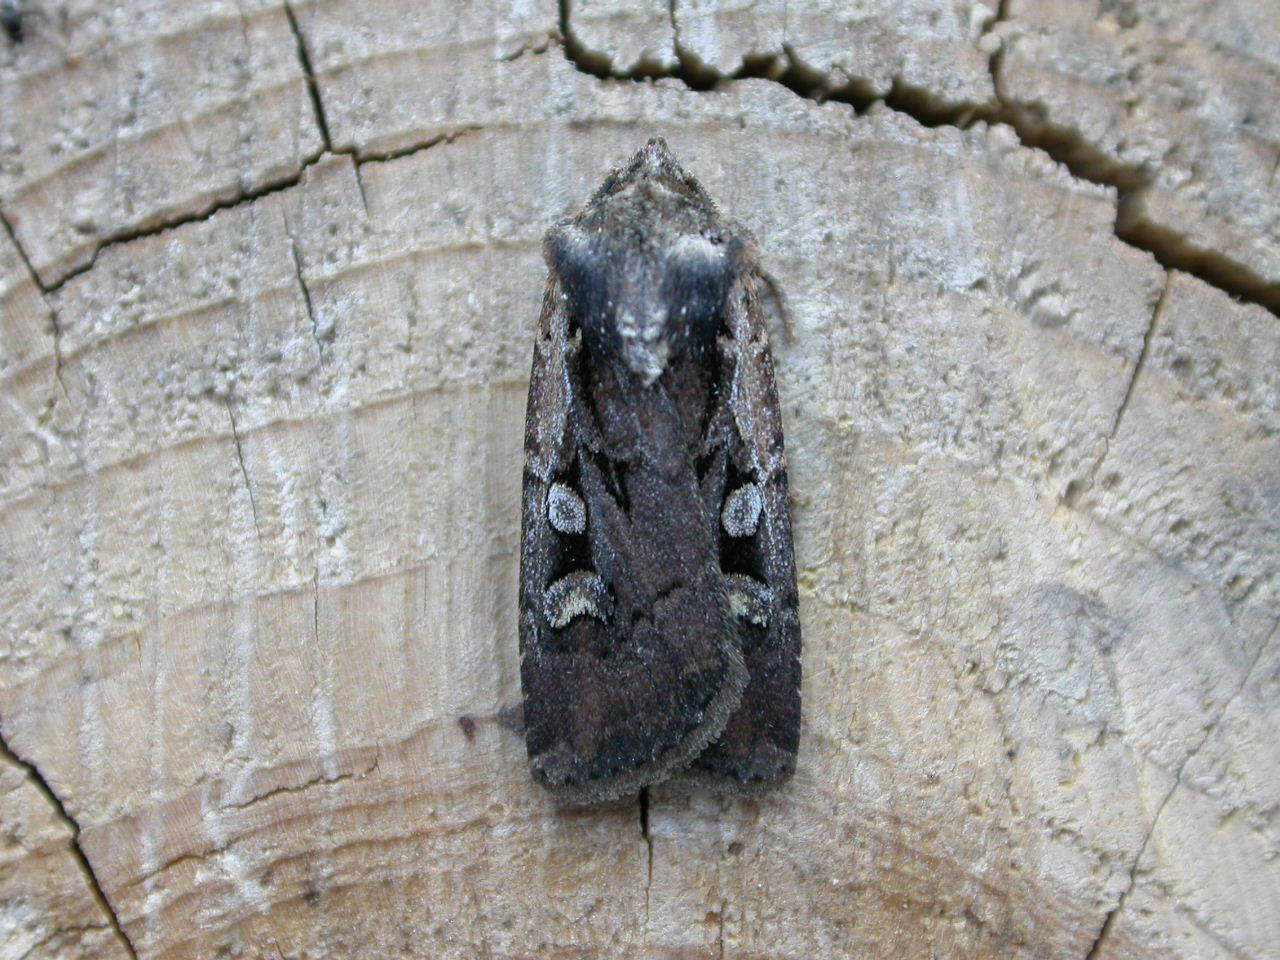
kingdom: Animalia
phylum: Arthropoda
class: Insecta
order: Lepidoptera
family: Noctuidae
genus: Euxoa
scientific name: Euxoa obelisca
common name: Square-spot dart
